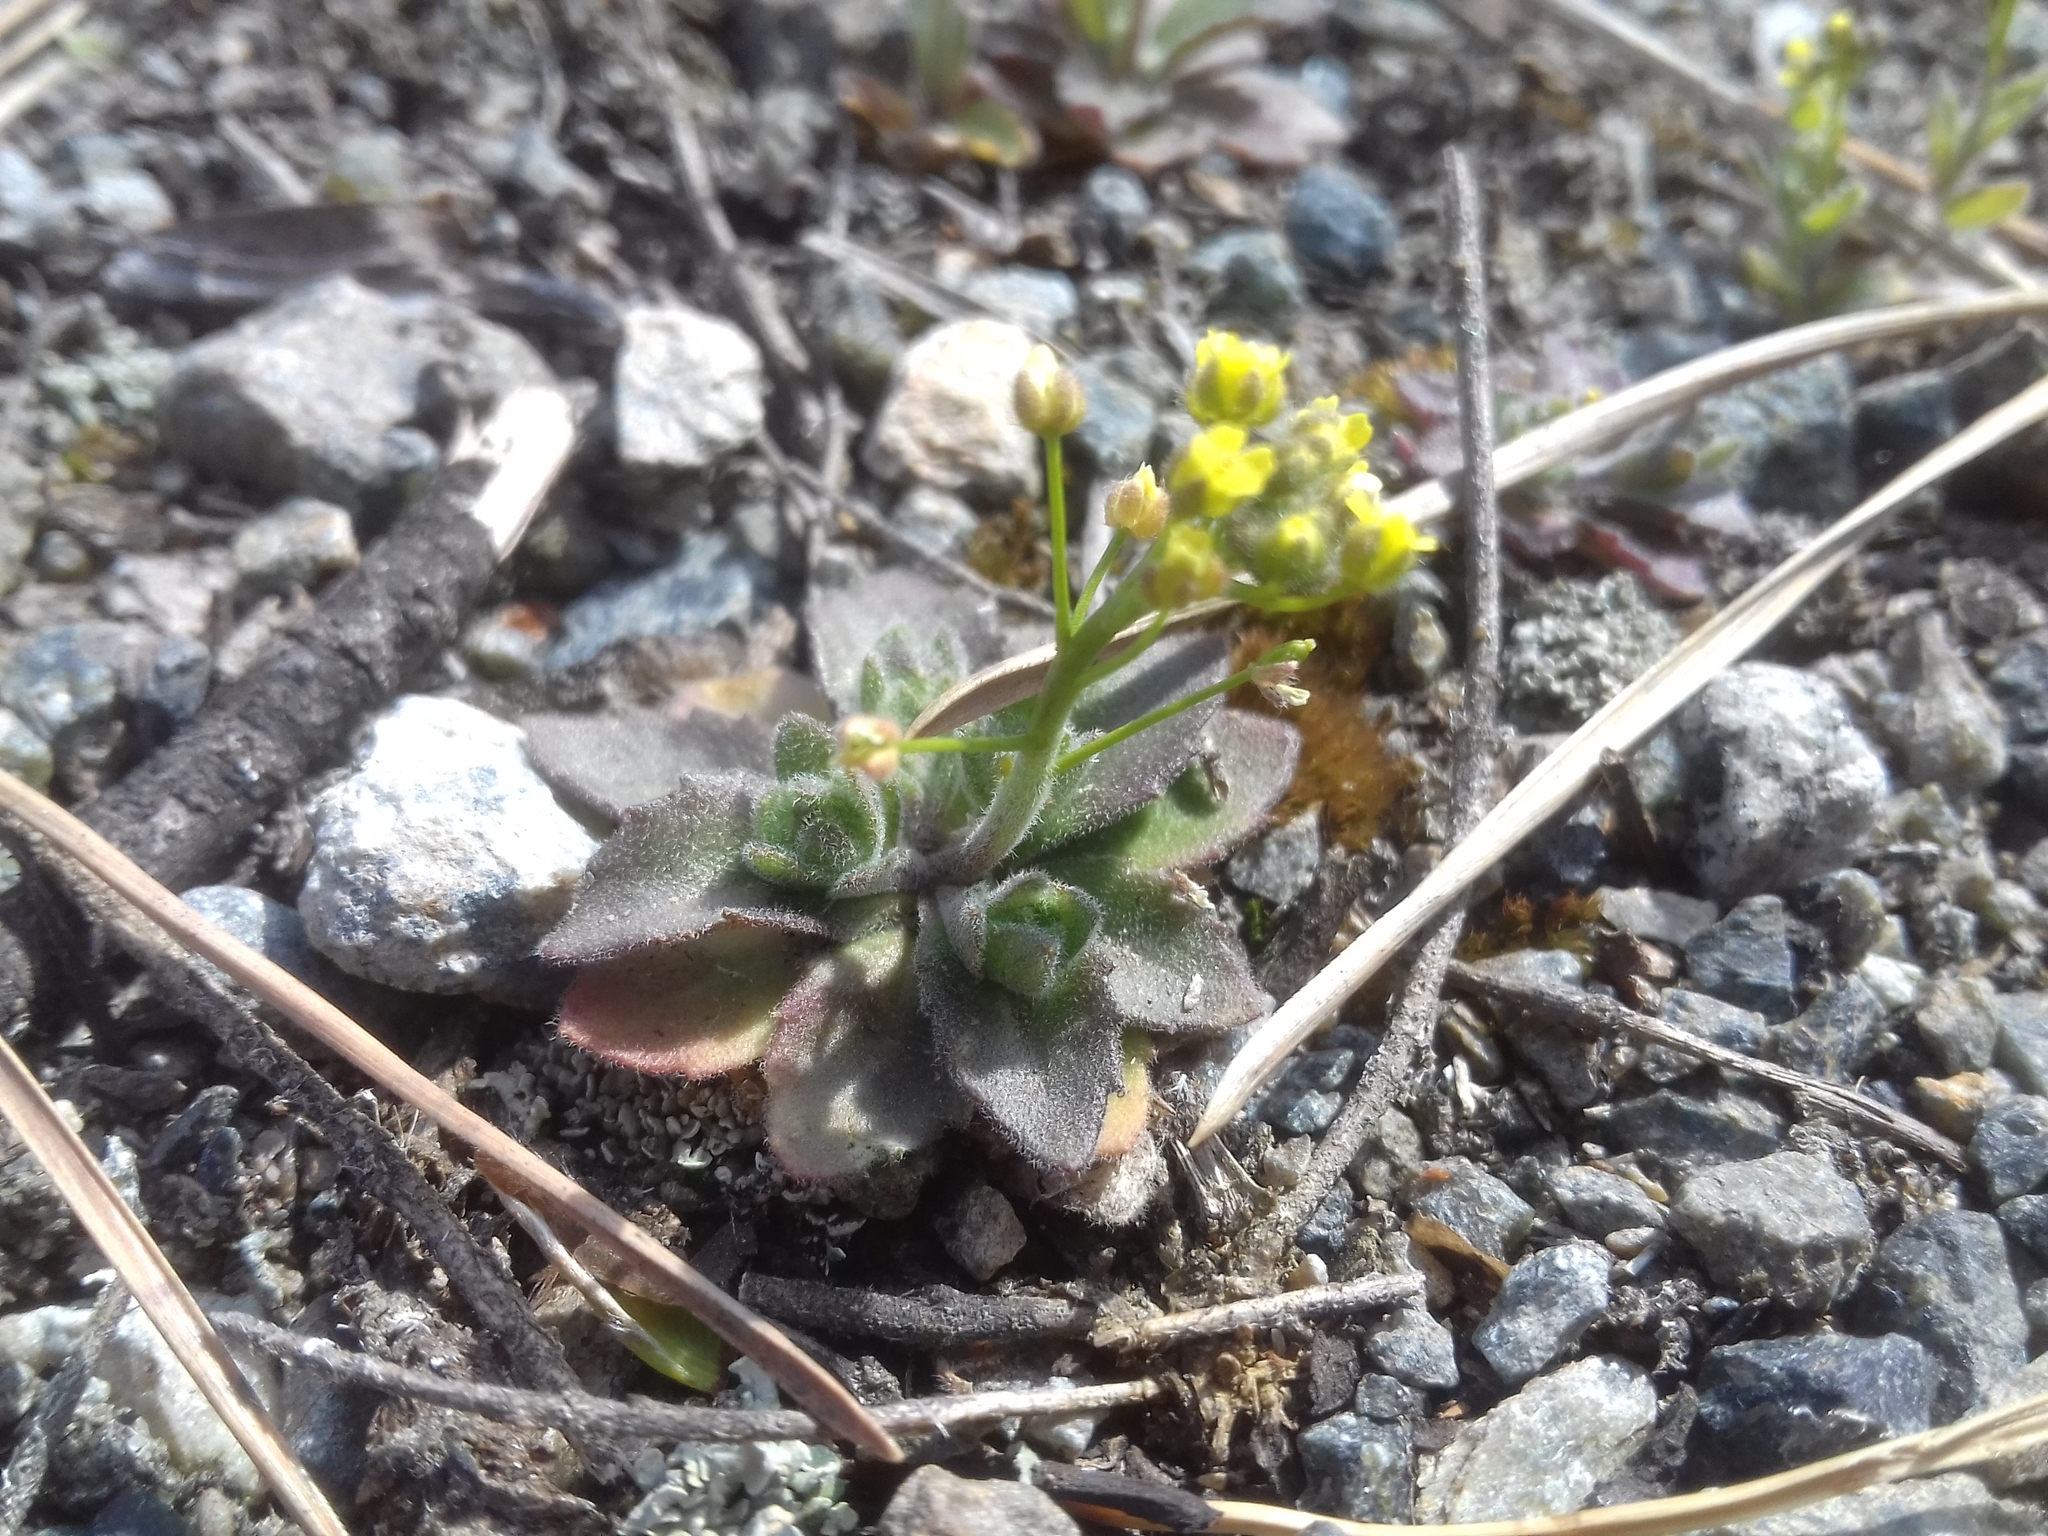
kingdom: Plantae
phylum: Tracheophyta
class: Magnoliopsida
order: Brassicales
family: Brassicaceae
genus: Draba
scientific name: Draba nemorosa
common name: Wood whitlow-grass
